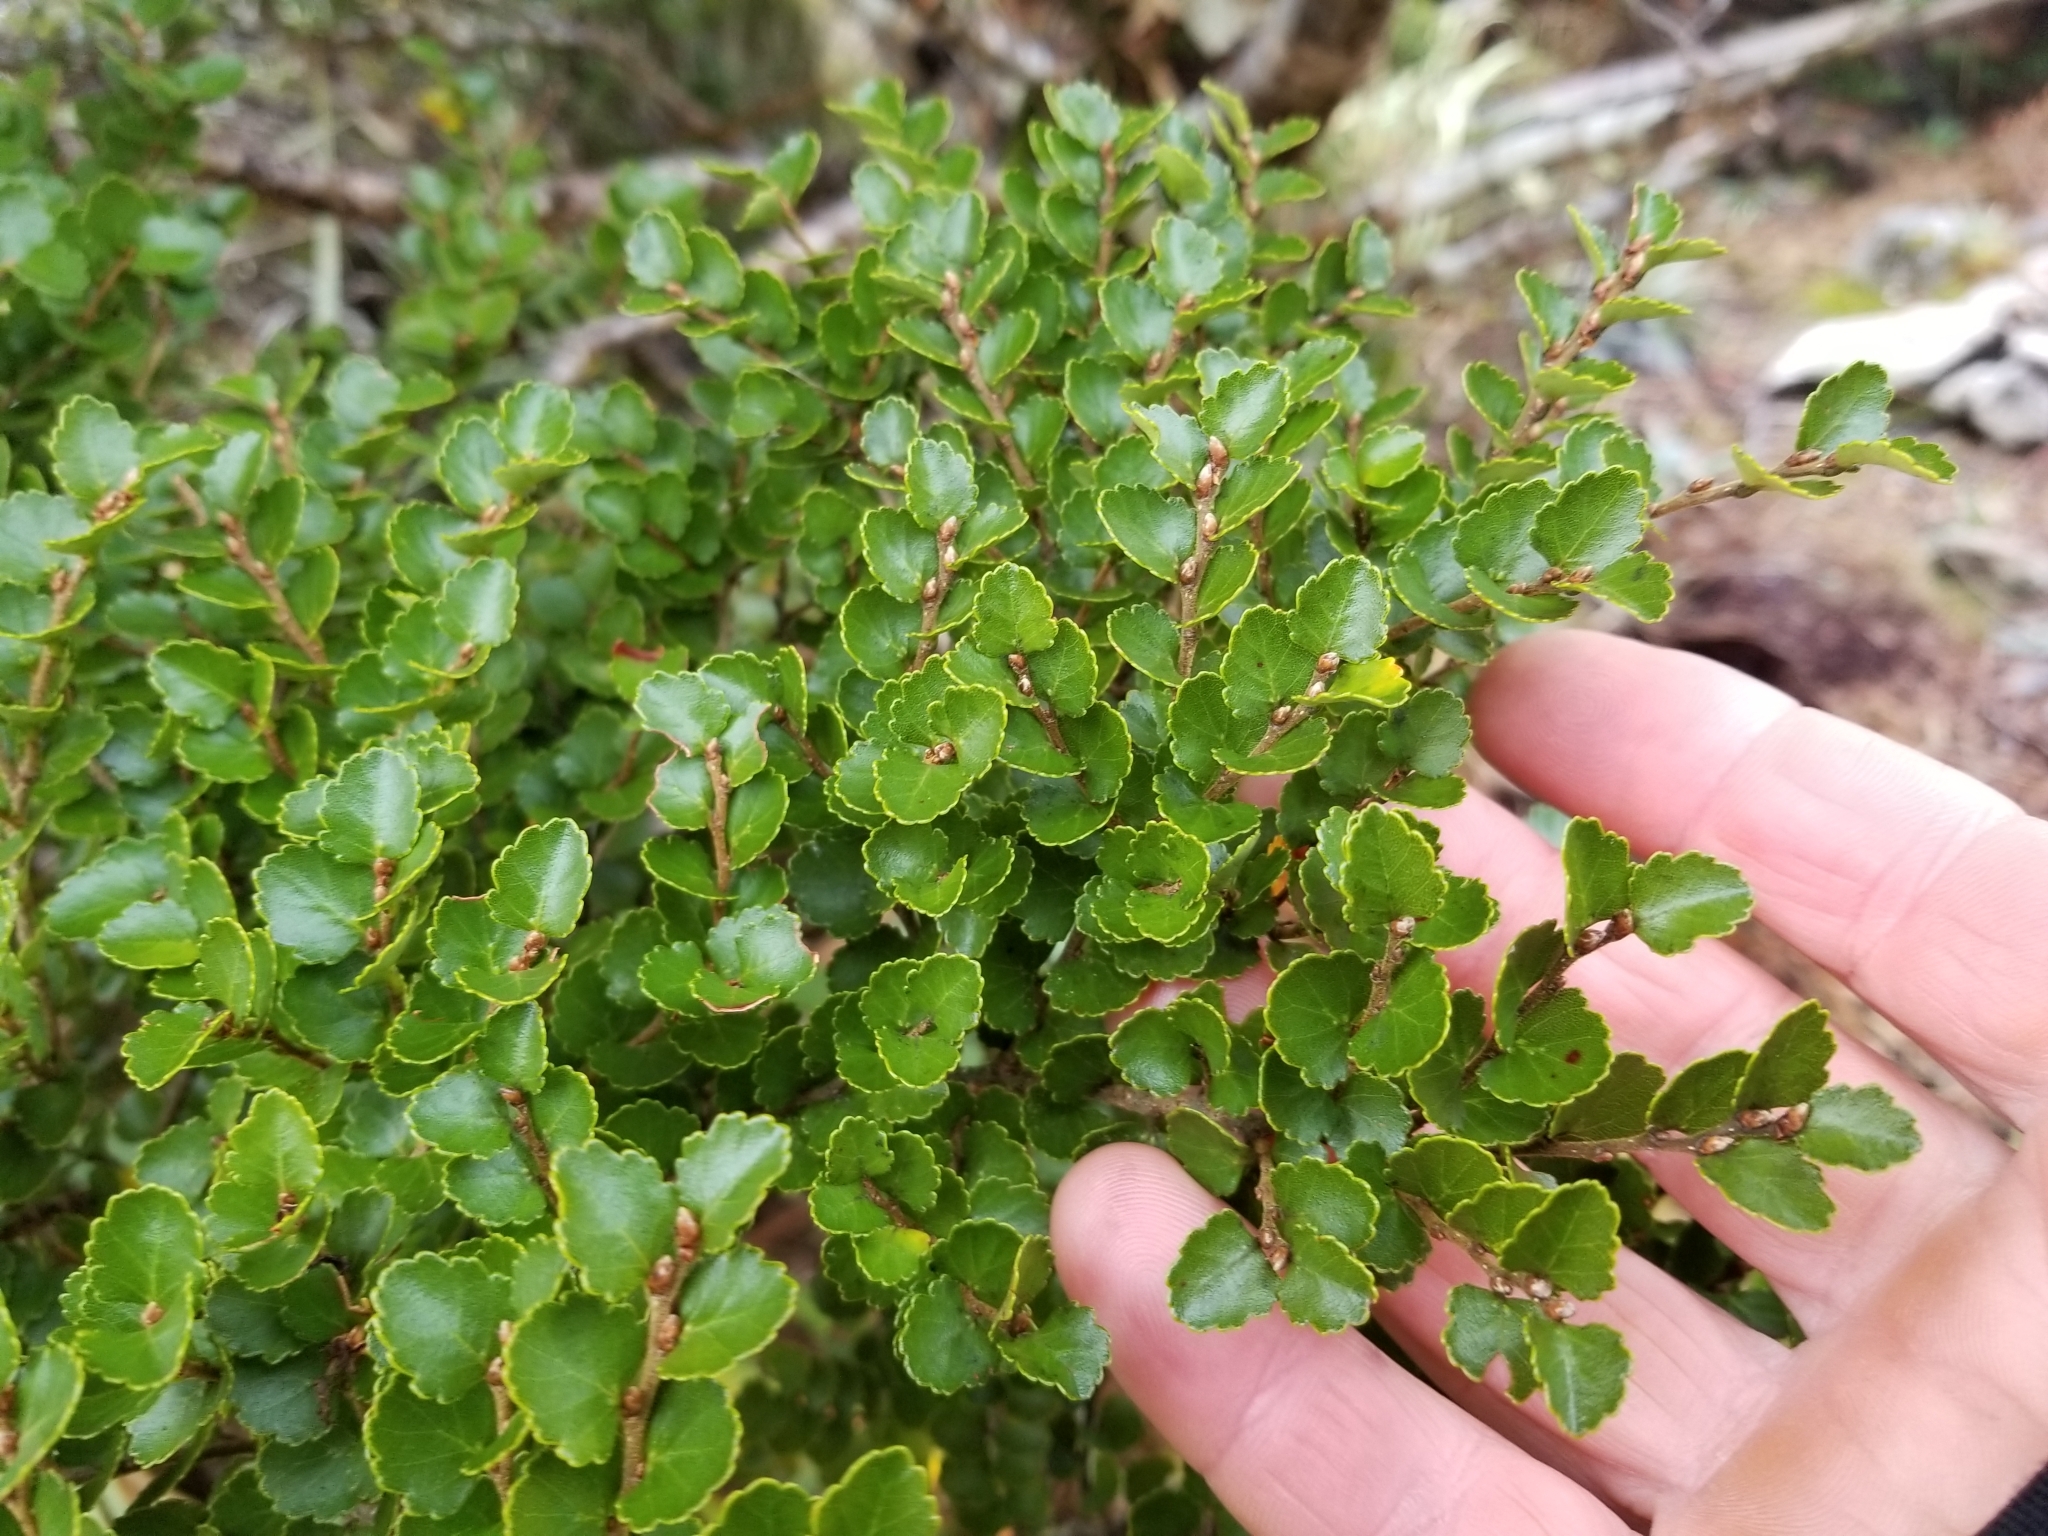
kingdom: Plantae
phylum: Tracheophyta
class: Magnoliopsida
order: Fagales
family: Nothofagaceae
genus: Nothofagus
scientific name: Nothofagus menziesii
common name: Silver beech
